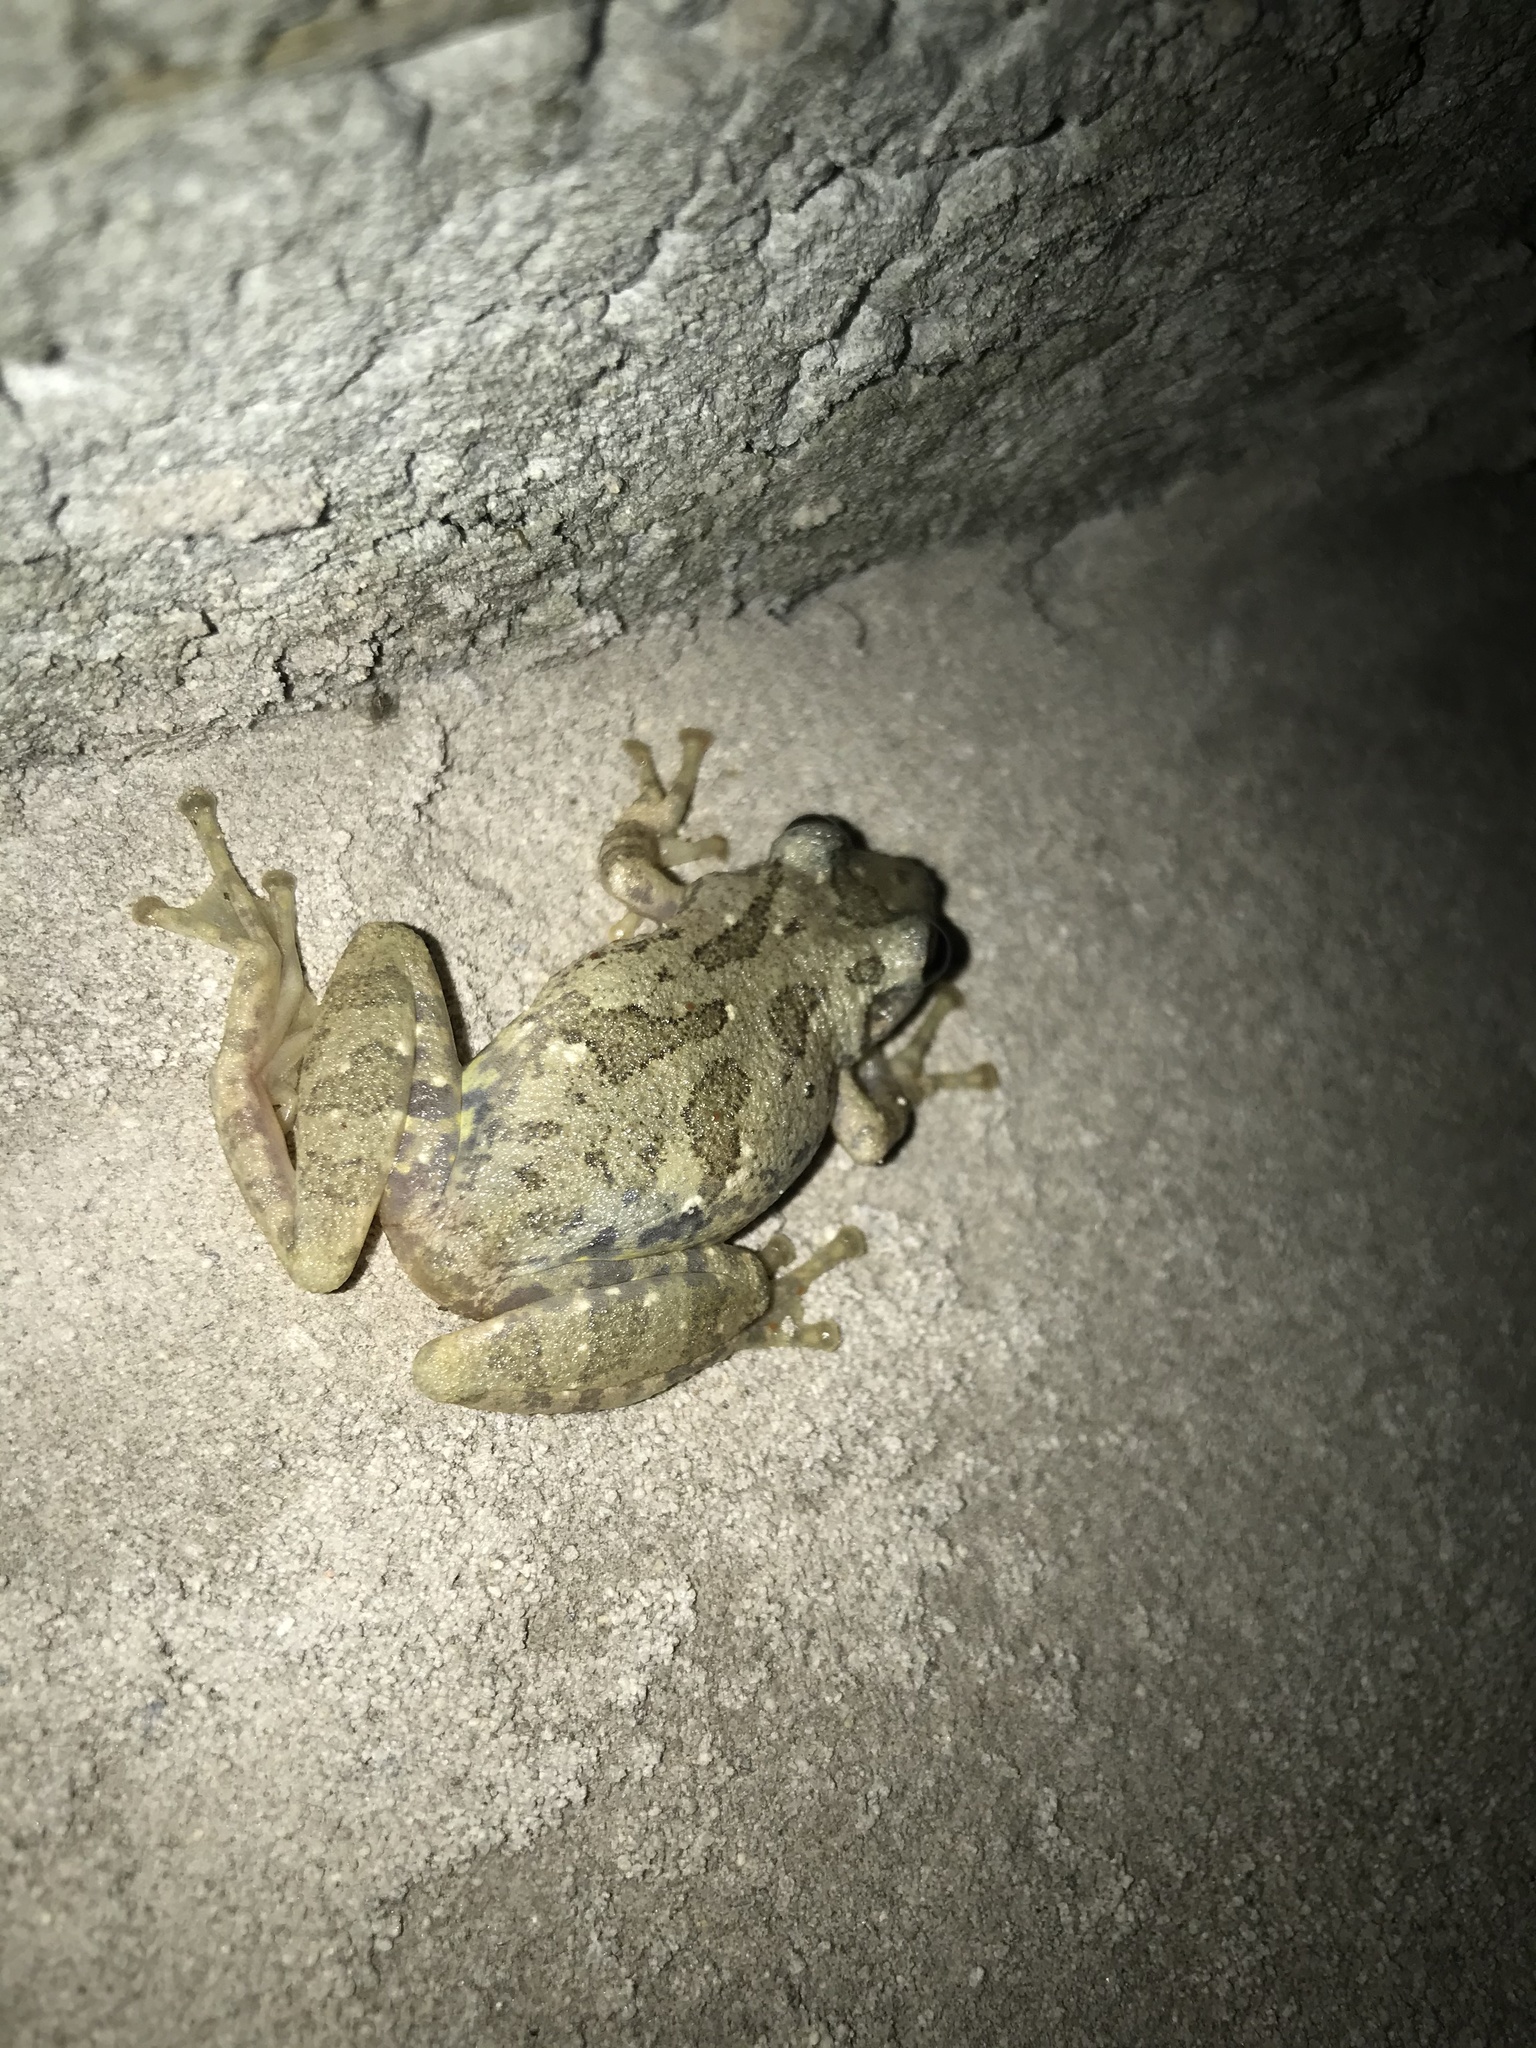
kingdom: Animalia
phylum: Chordata
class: Amphibia
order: Anura
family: Hylidae
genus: Scinax
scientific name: Scinax granulatus
